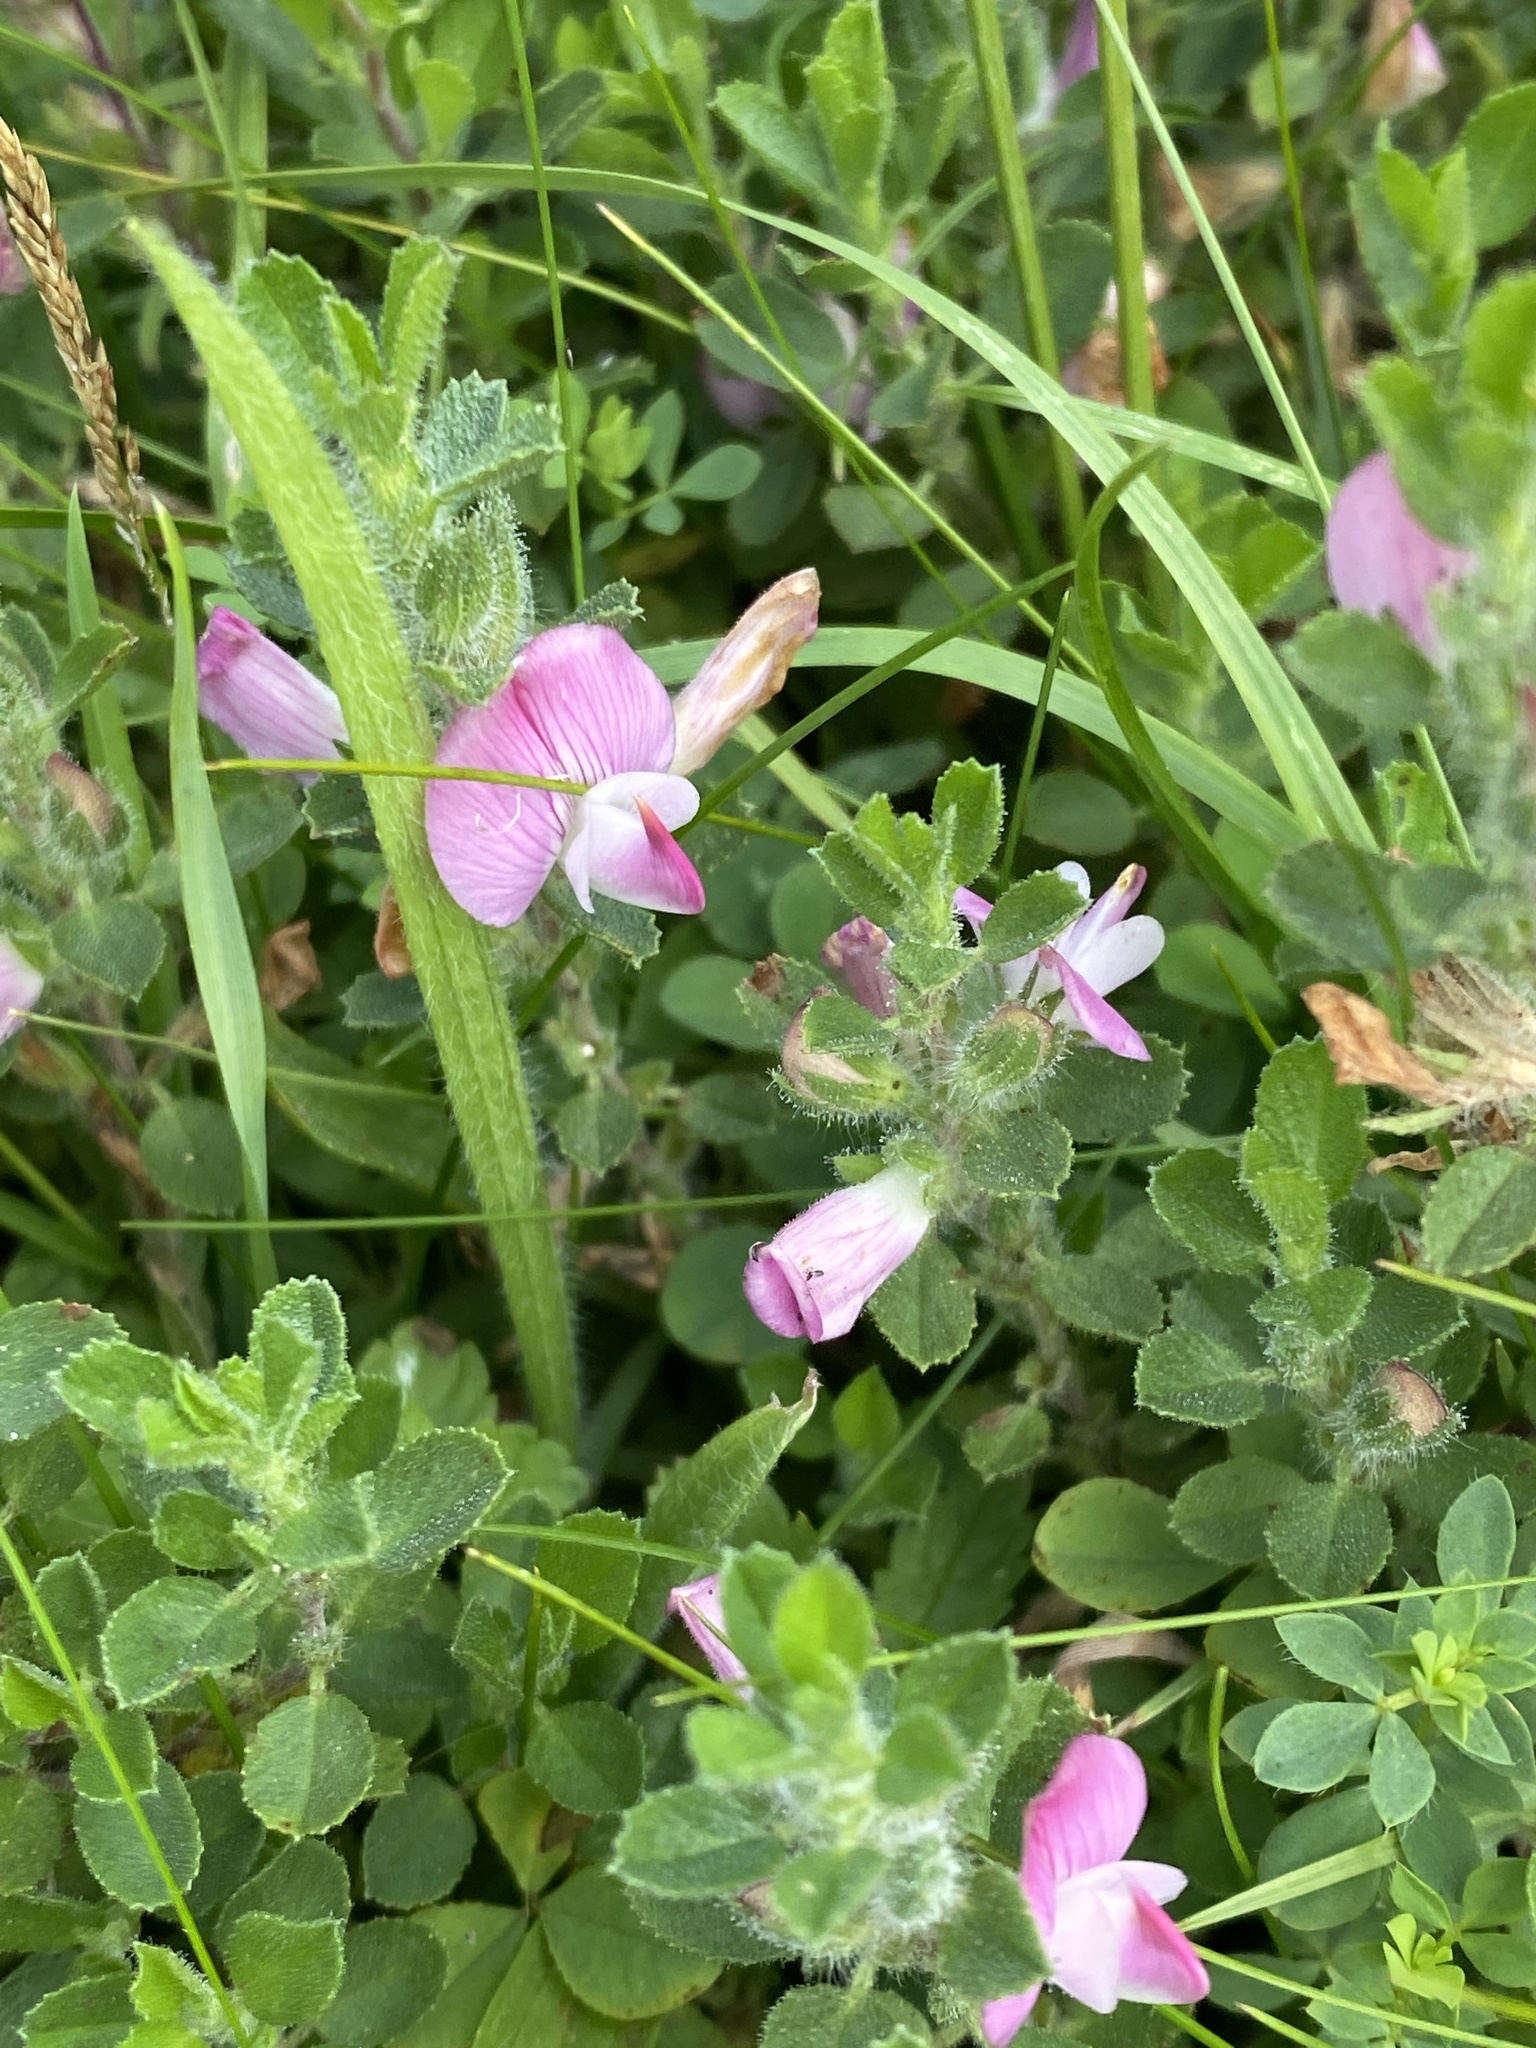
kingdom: Plantae
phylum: Tracheophyta
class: Magnoliopsida
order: Fabales
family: Fabaceae
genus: Ononis
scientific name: Ononis spinosa
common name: Spiny restharrow
